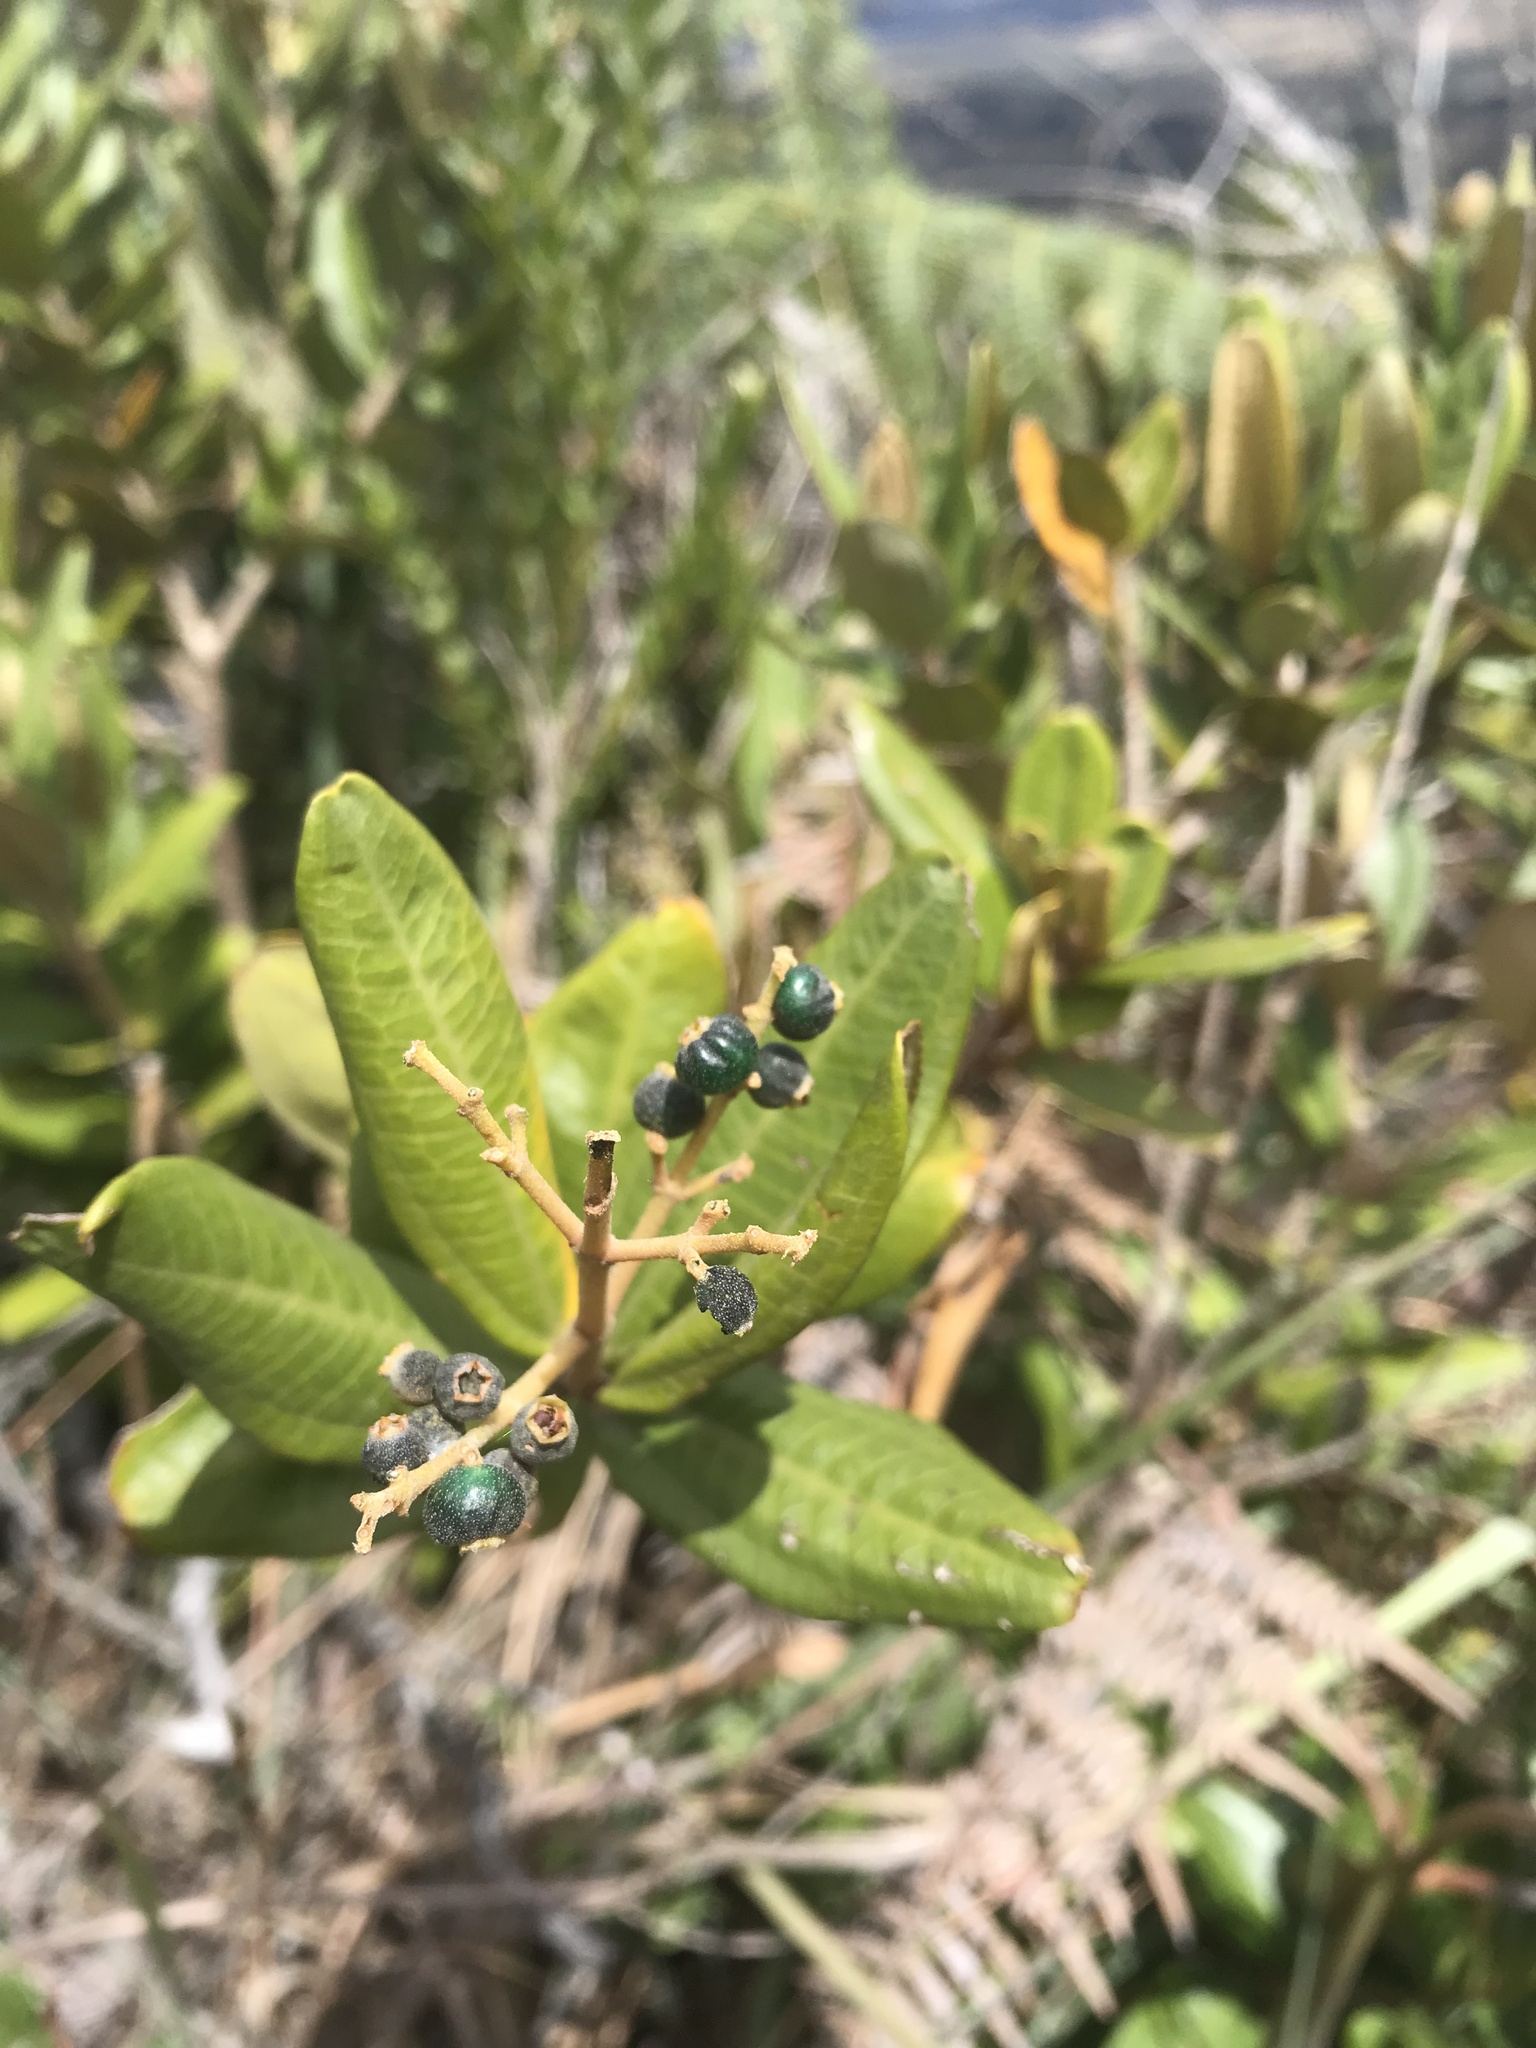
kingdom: Plantae
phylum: Tracheophyta
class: Magnoliopsida
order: Myrtales
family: Melastomataceae
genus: Miconia
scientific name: Miconia squamulosa
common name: Squamulose maya
